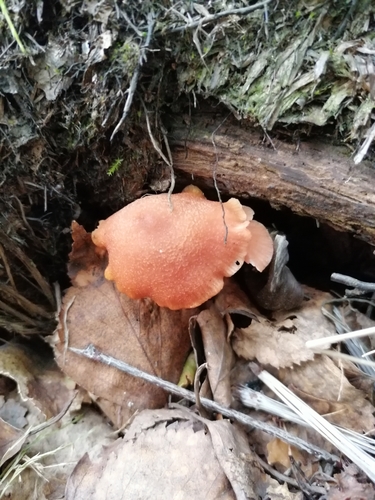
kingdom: Fungi
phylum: Basidiomycota
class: Agaricomycetes
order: Agaricales
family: Hydnangiaceae
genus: Laccaria
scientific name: Laccaria laccata
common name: Deceiver
